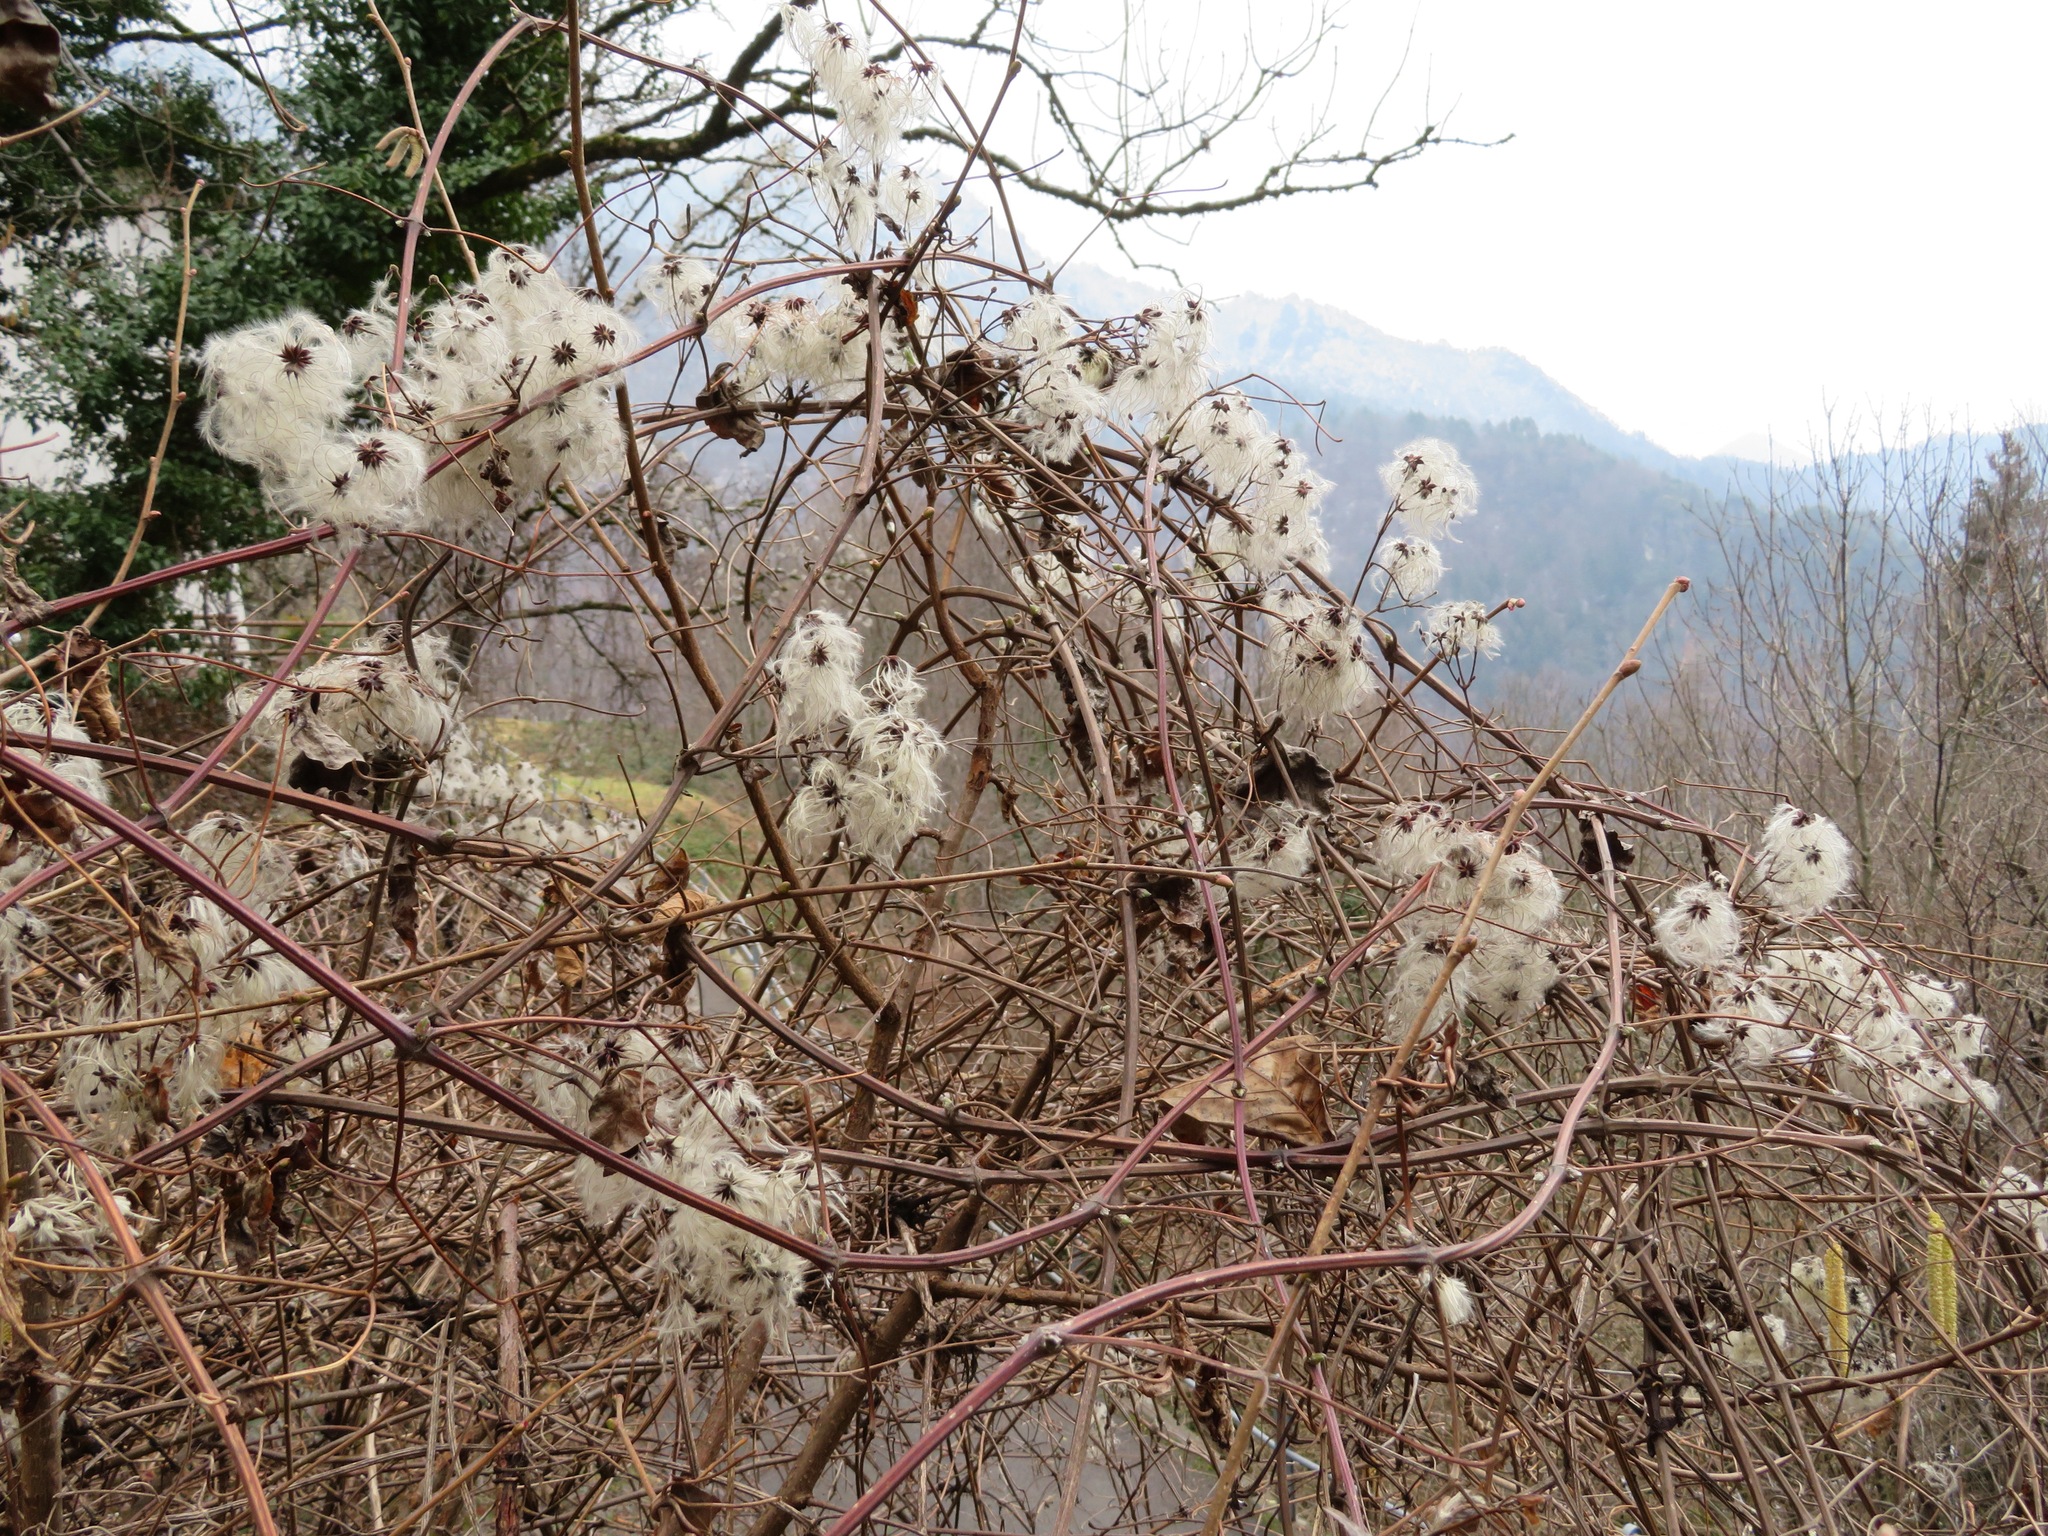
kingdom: Plantae
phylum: Tracheophyta
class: Magnoliopsida
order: Ranunculales
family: Ranunculaceae
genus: Clematis
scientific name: Clematis vitalba
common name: Evergreen clematis
